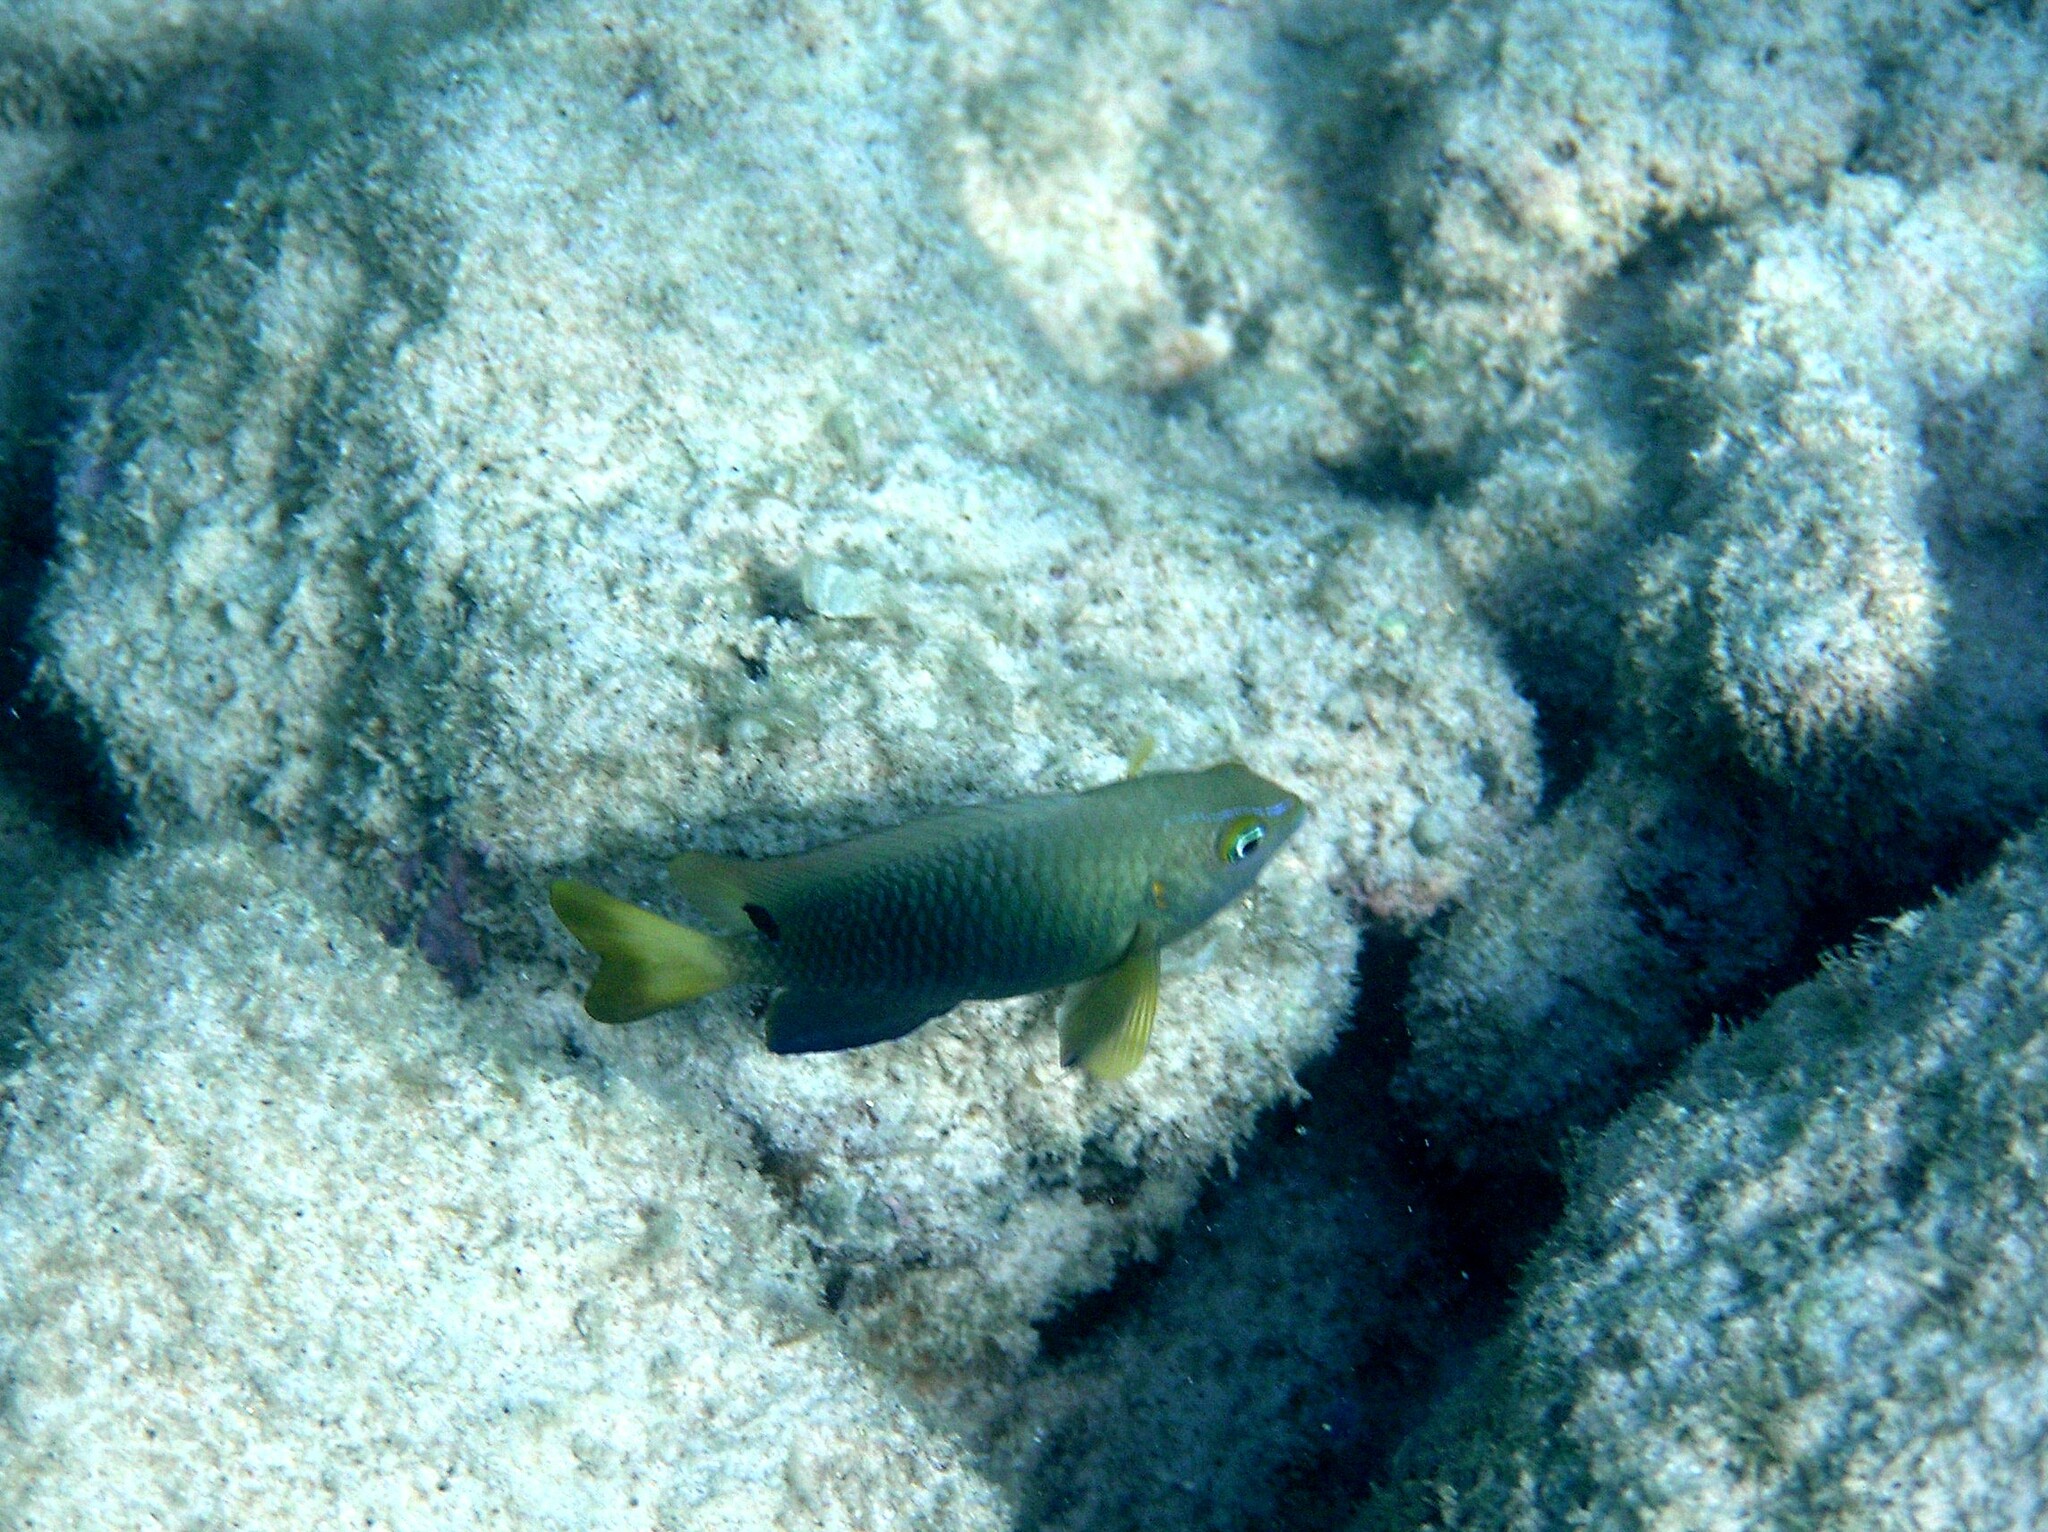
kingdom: Animalia
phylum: Chordata
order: Perciformes
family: Pomacentridae
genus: Chrysiptera
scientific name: Chrysiptera unimaculata
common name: Onespot demoiselle
